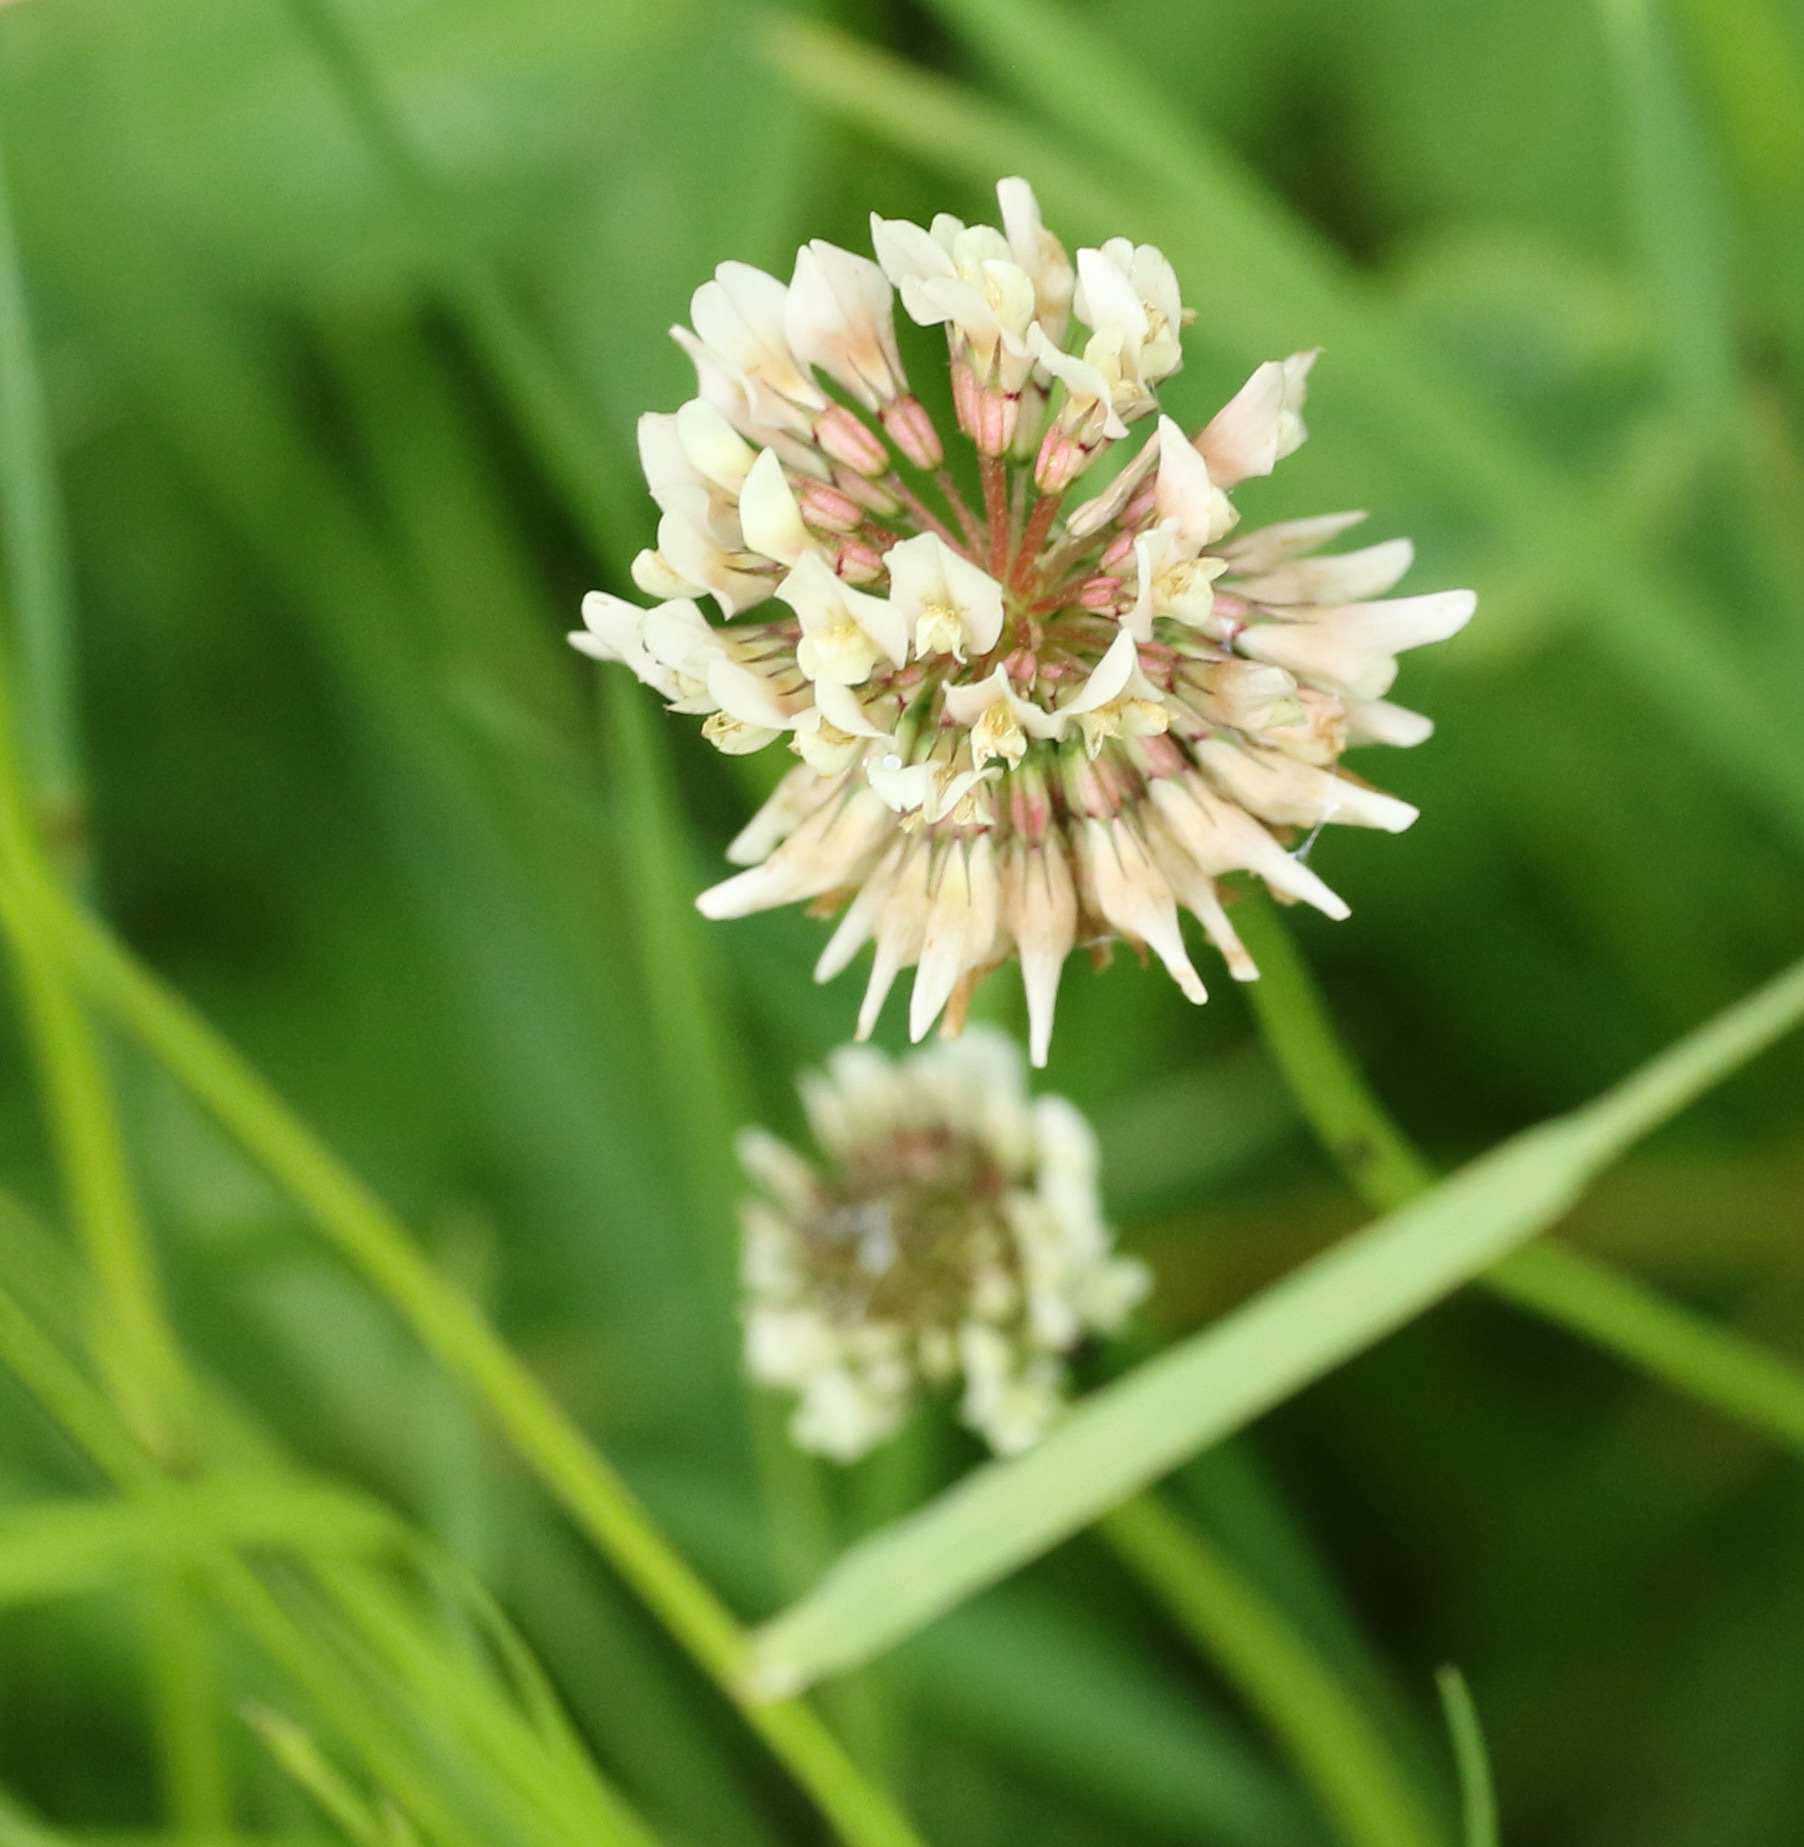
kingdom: Plantae
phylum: Tracheophyta
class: Magnoliopsida
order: Fabales
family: Fabaceae
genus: Trifolium
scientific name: Trifolium repens
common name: White clover
